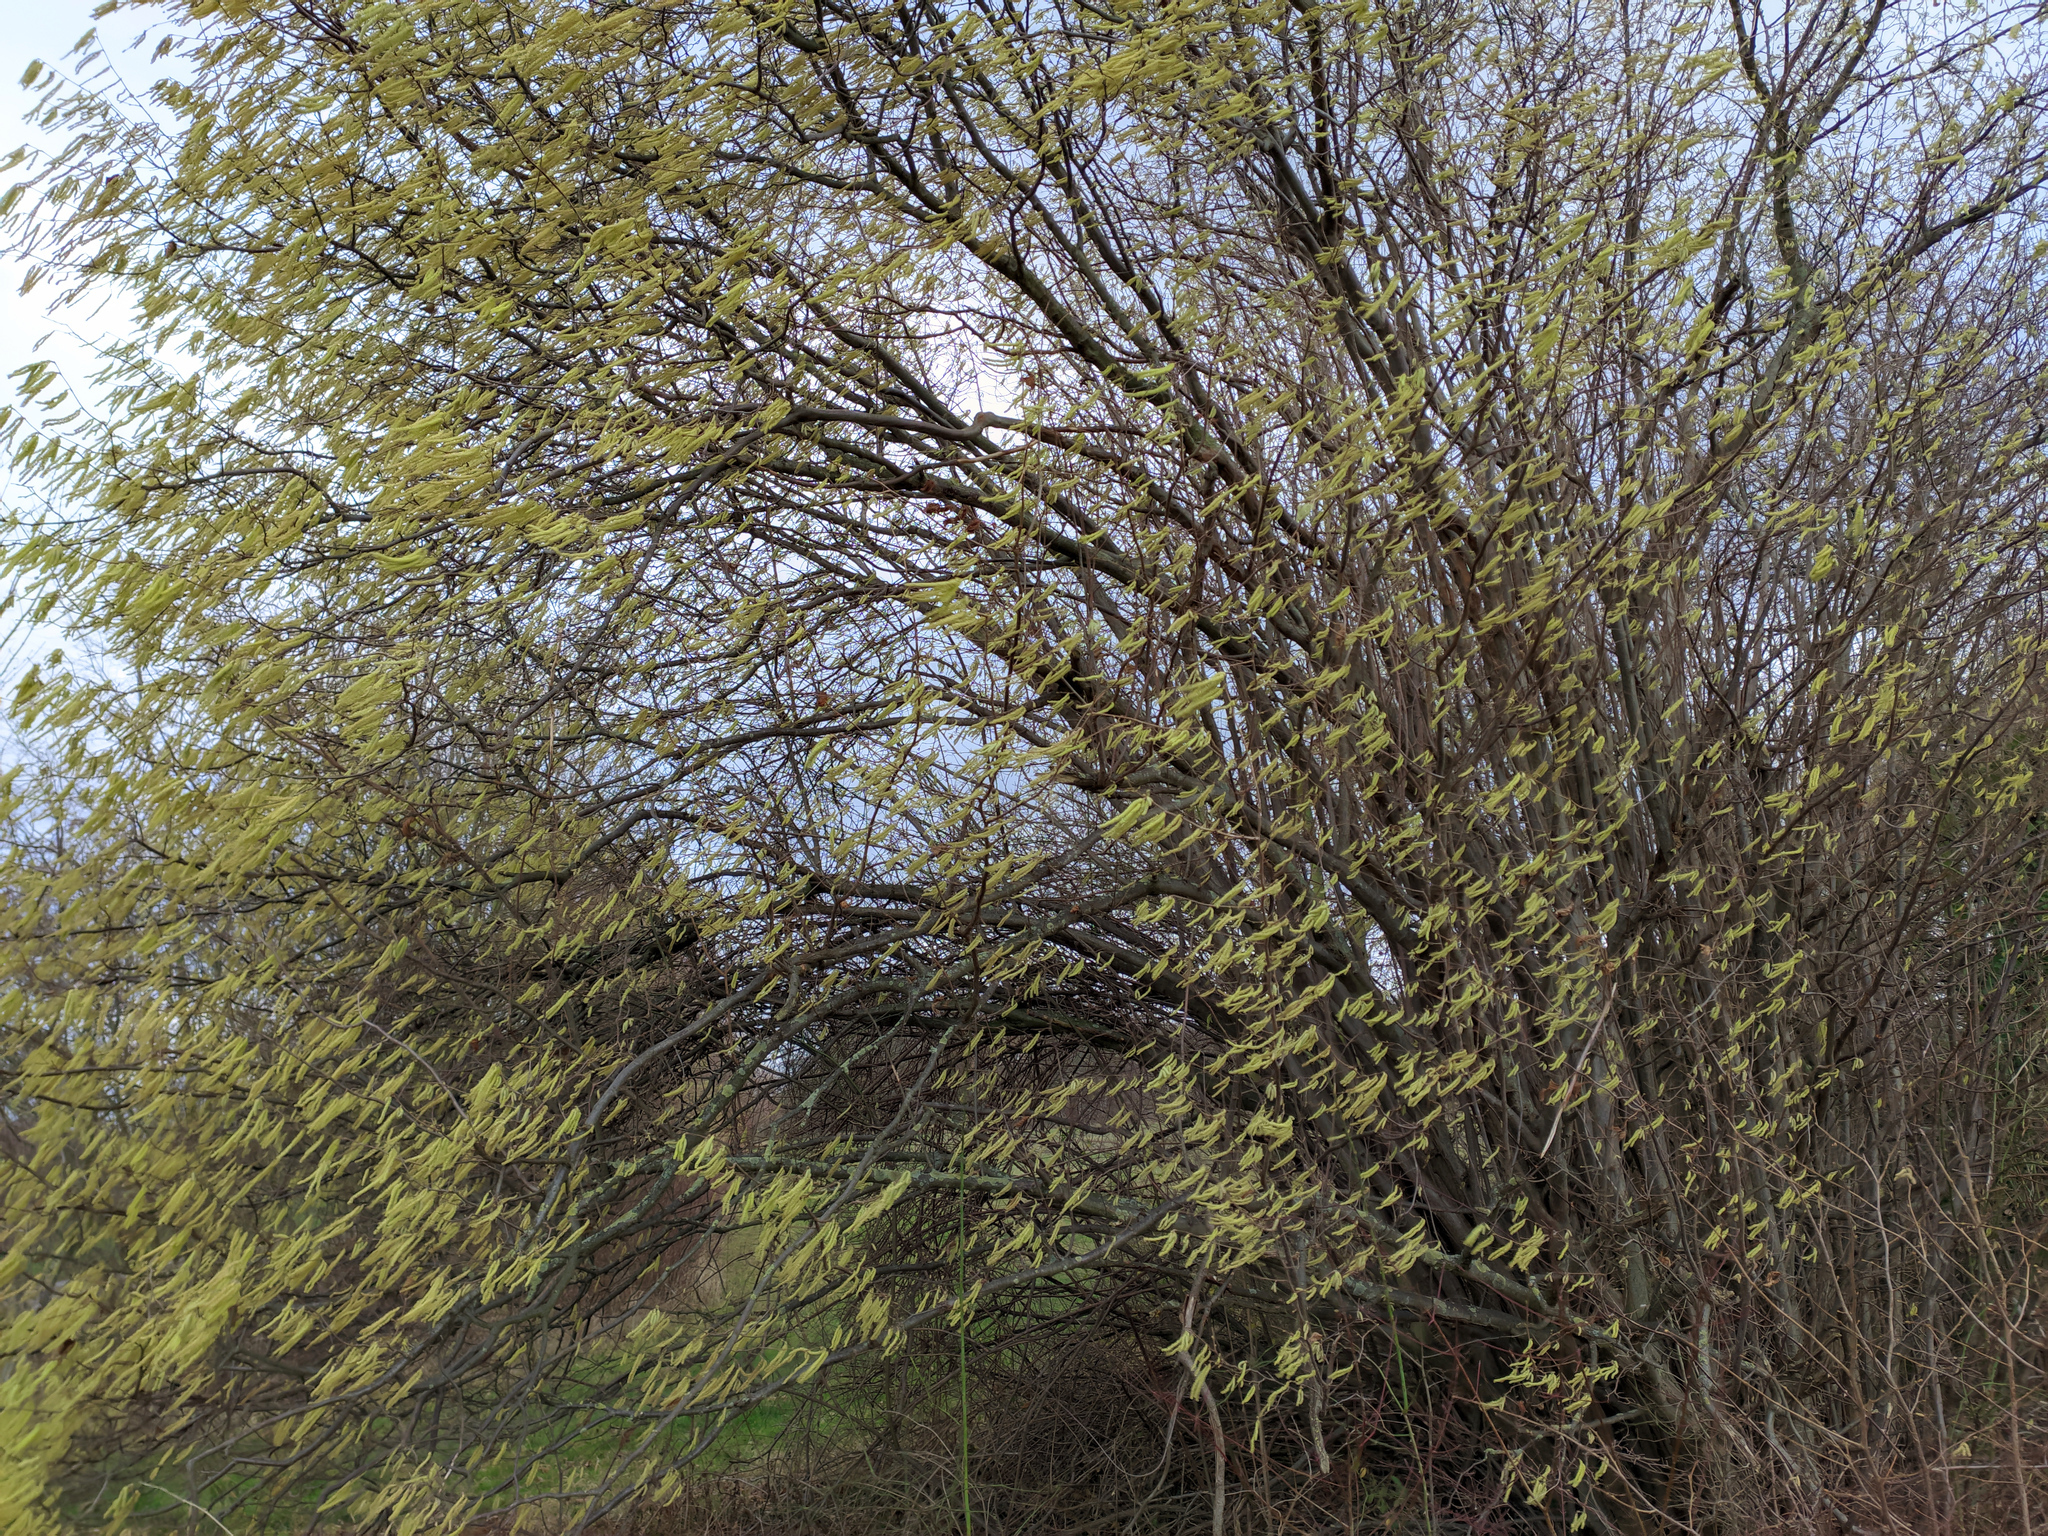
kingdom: Plantae
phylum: Tracheophyta
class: Magnoliopsida
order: Fagales
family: Betulaceae
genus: Corylus
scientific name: Corylus avellana
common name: European hazel
